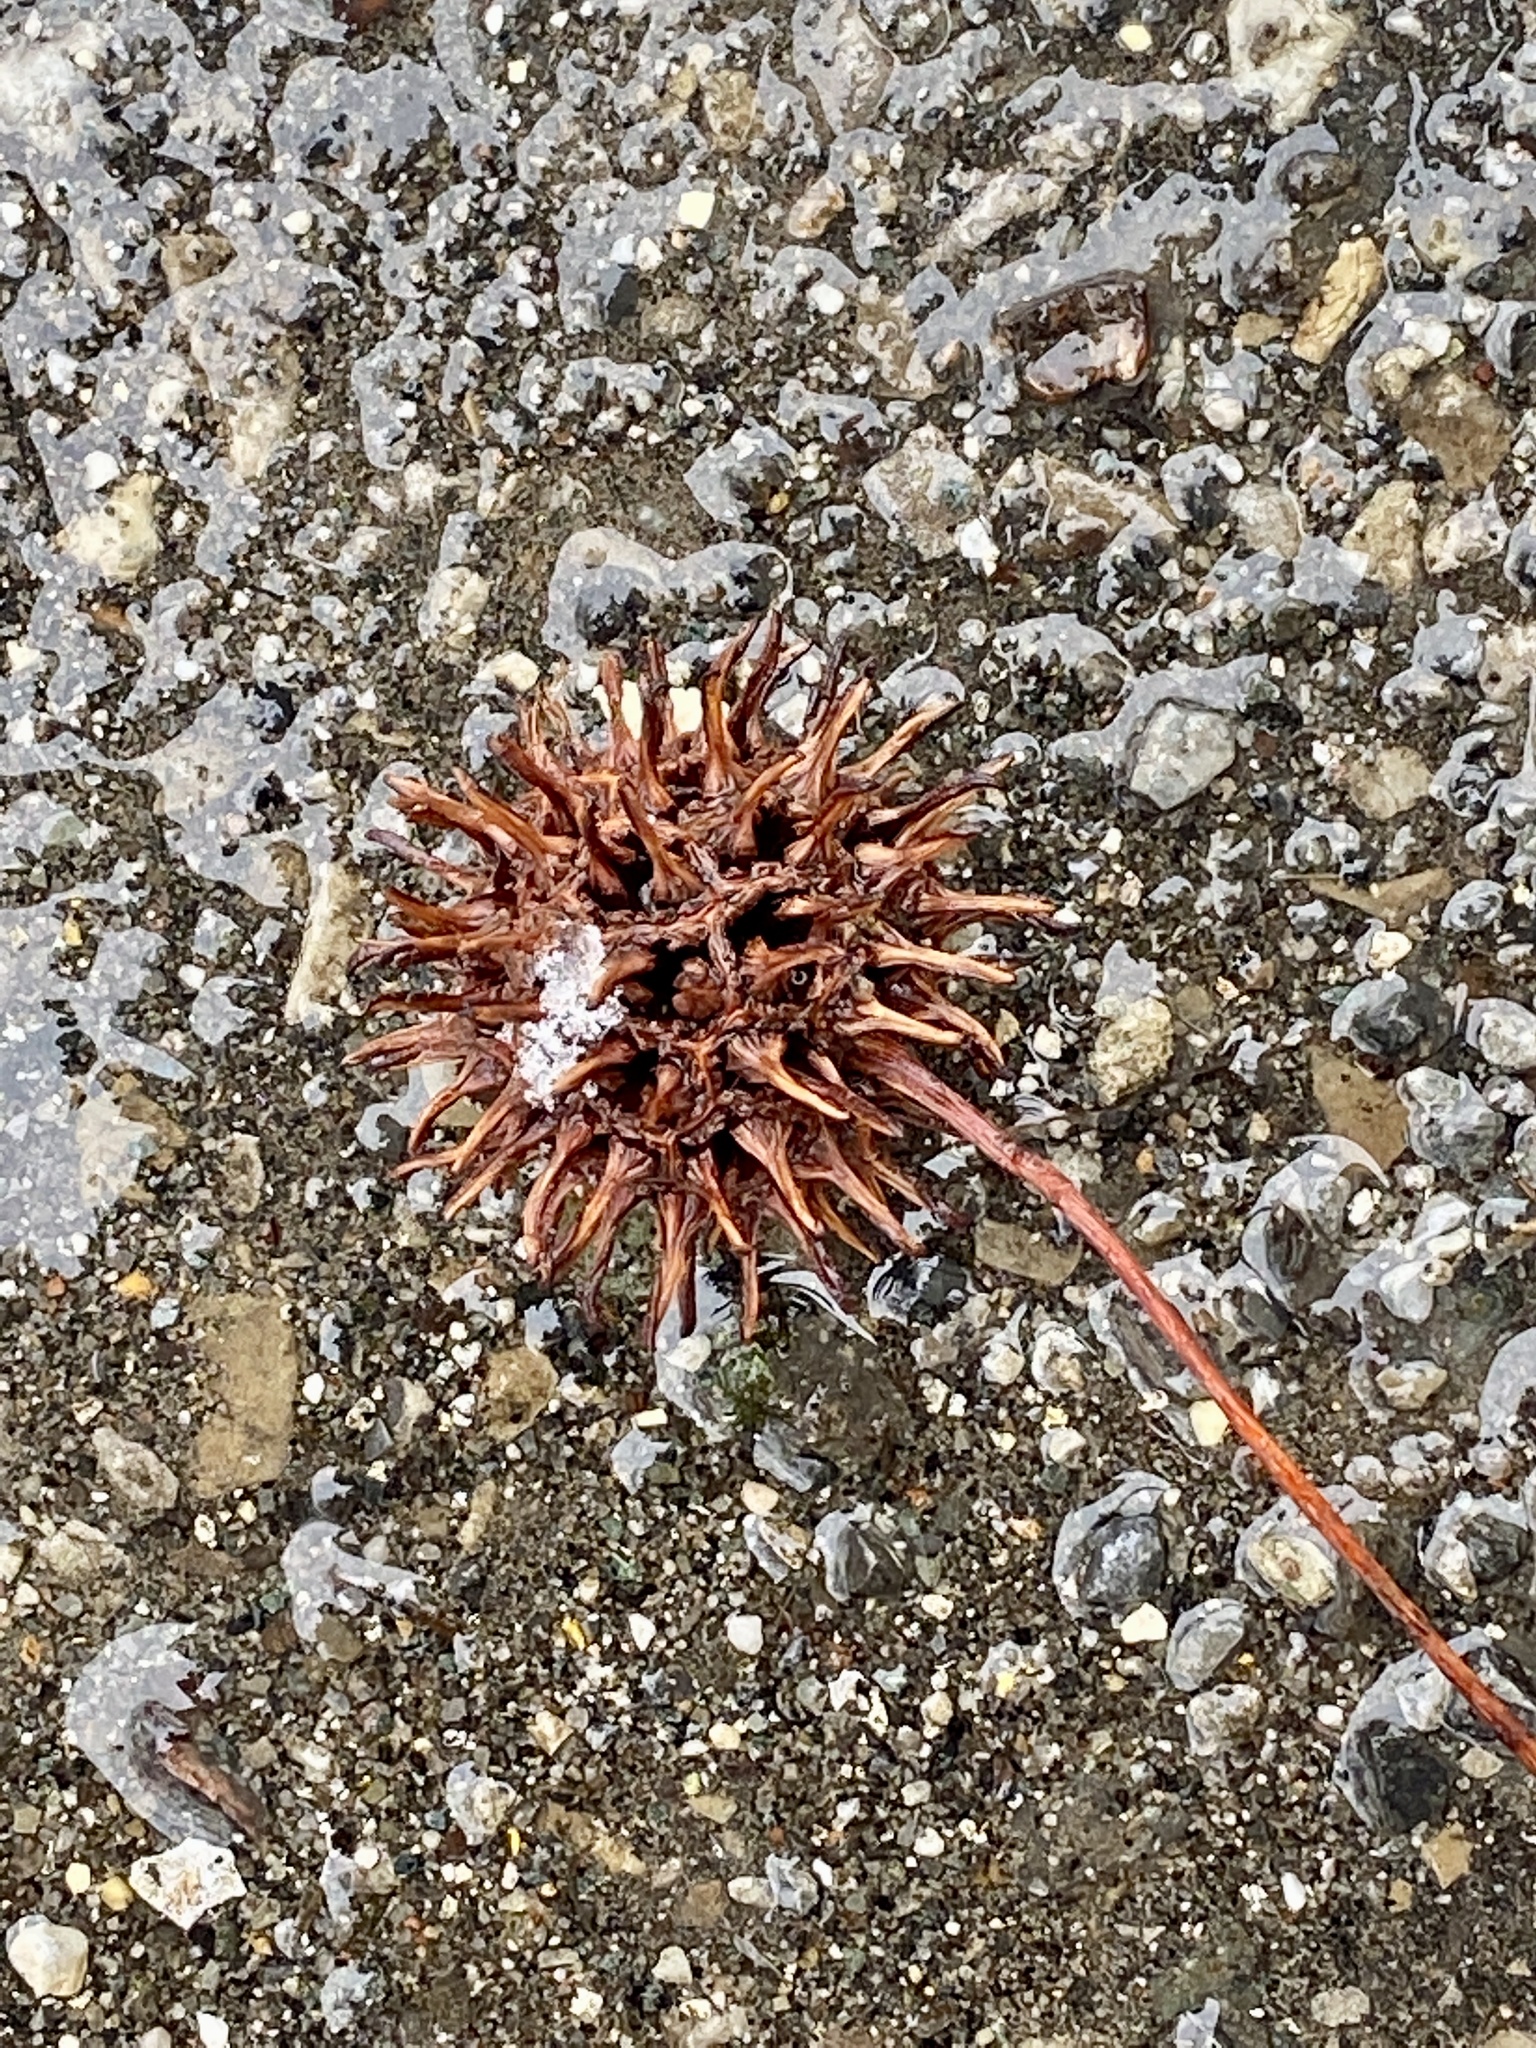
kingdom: Plantae
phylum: Tracheophyta
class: Magnoliopsida
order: Saxifragales
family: Altingiaceae
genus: Liquidambar
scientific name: Liquidambar styraciflua
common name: Sweet gum
